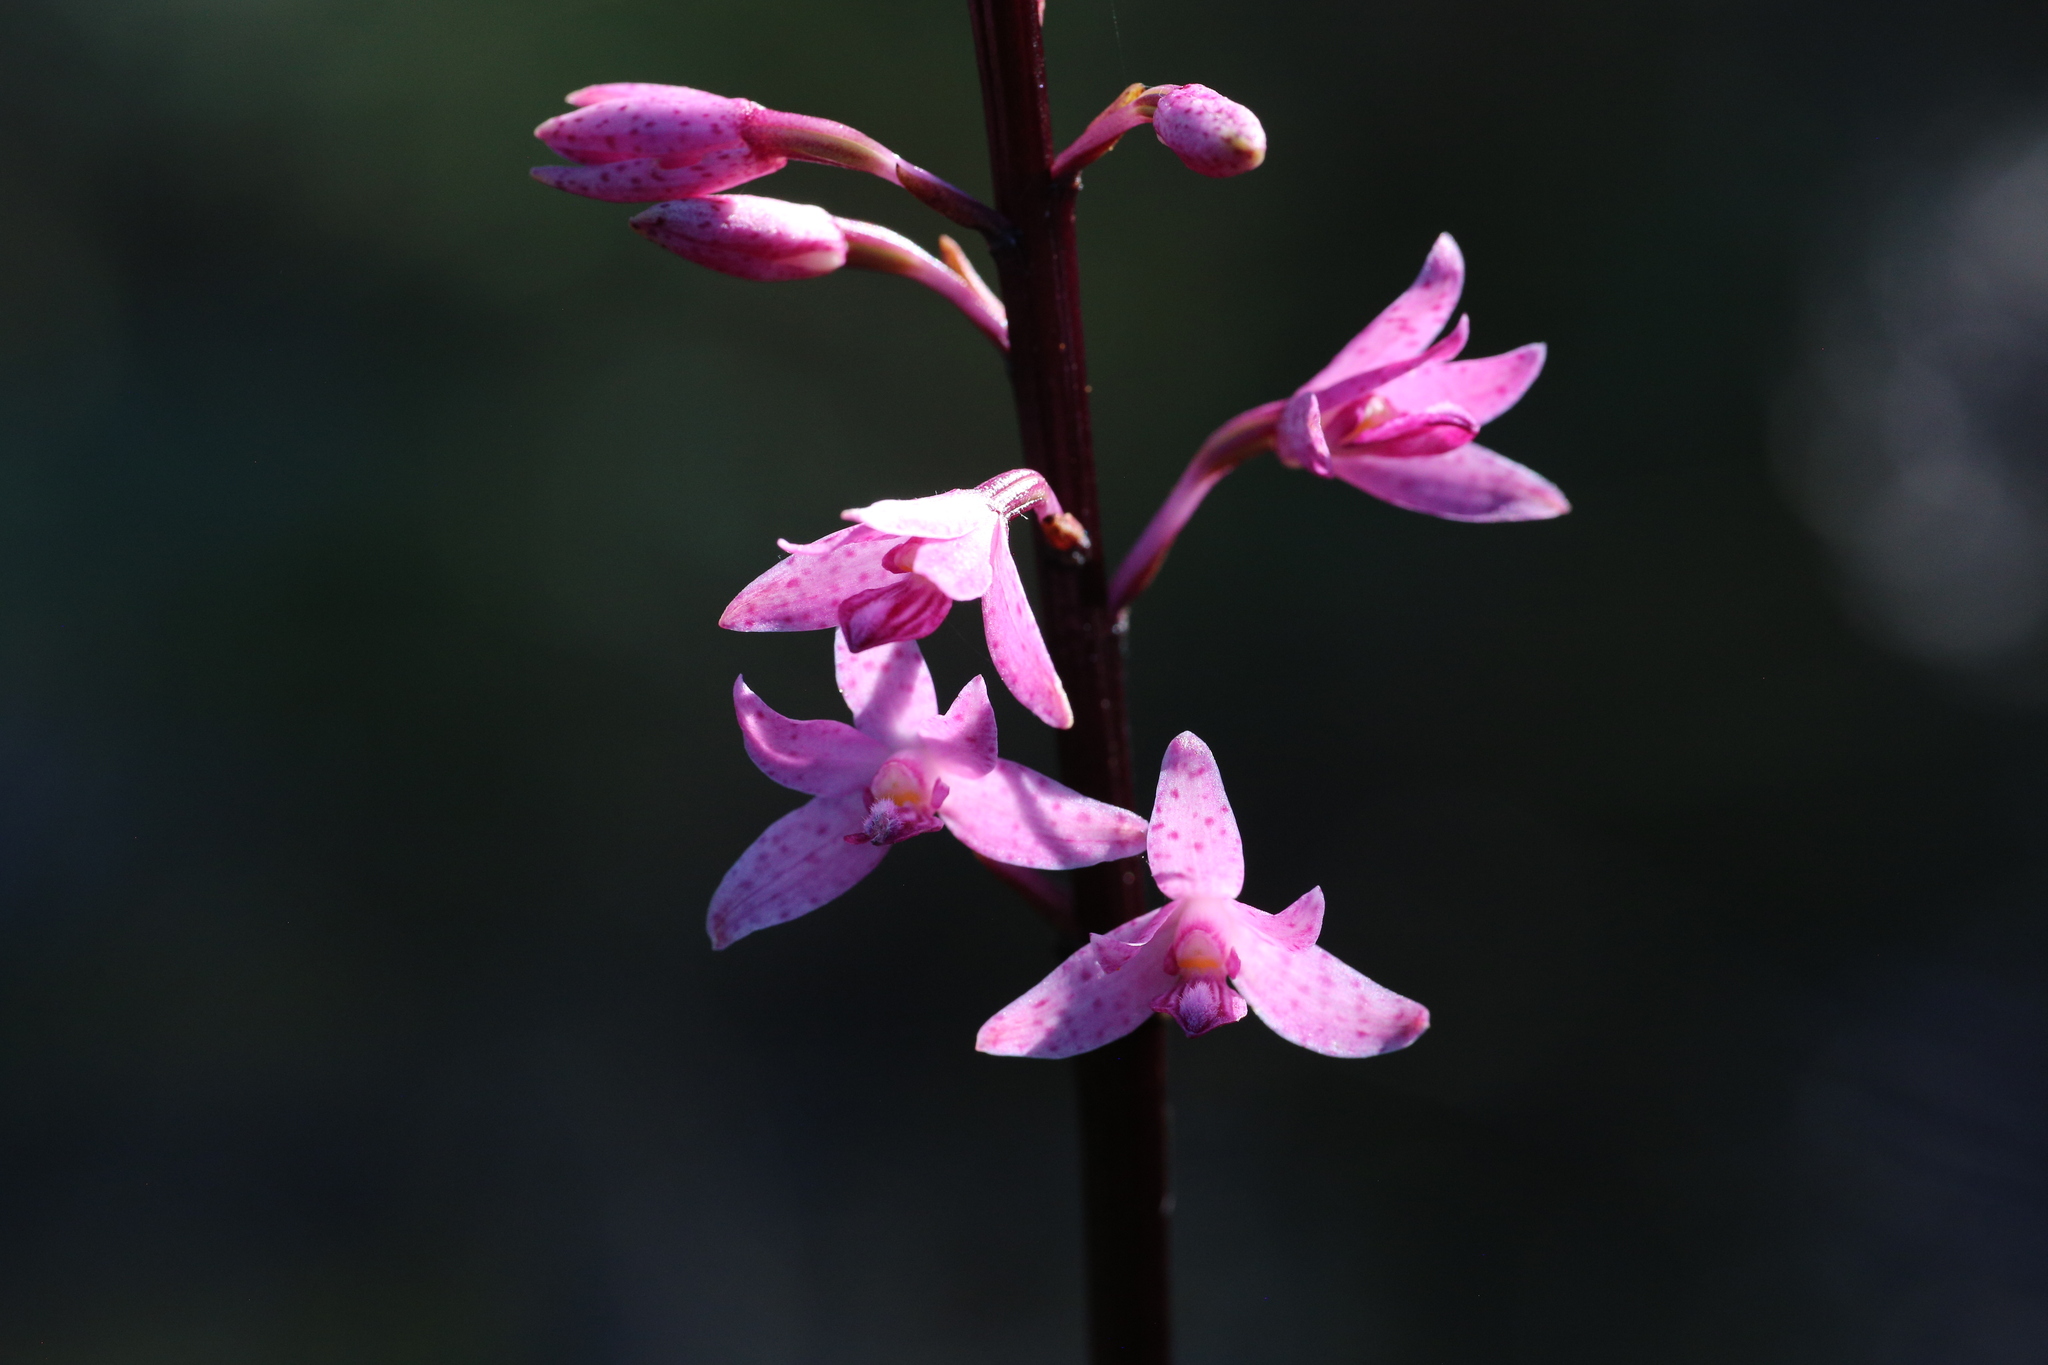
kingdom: Plantae
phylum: Tracheophyta
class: Liliopsida
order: Asparagales
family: Orchidaceae
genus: Dipodium
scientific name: Dipodium roseum
